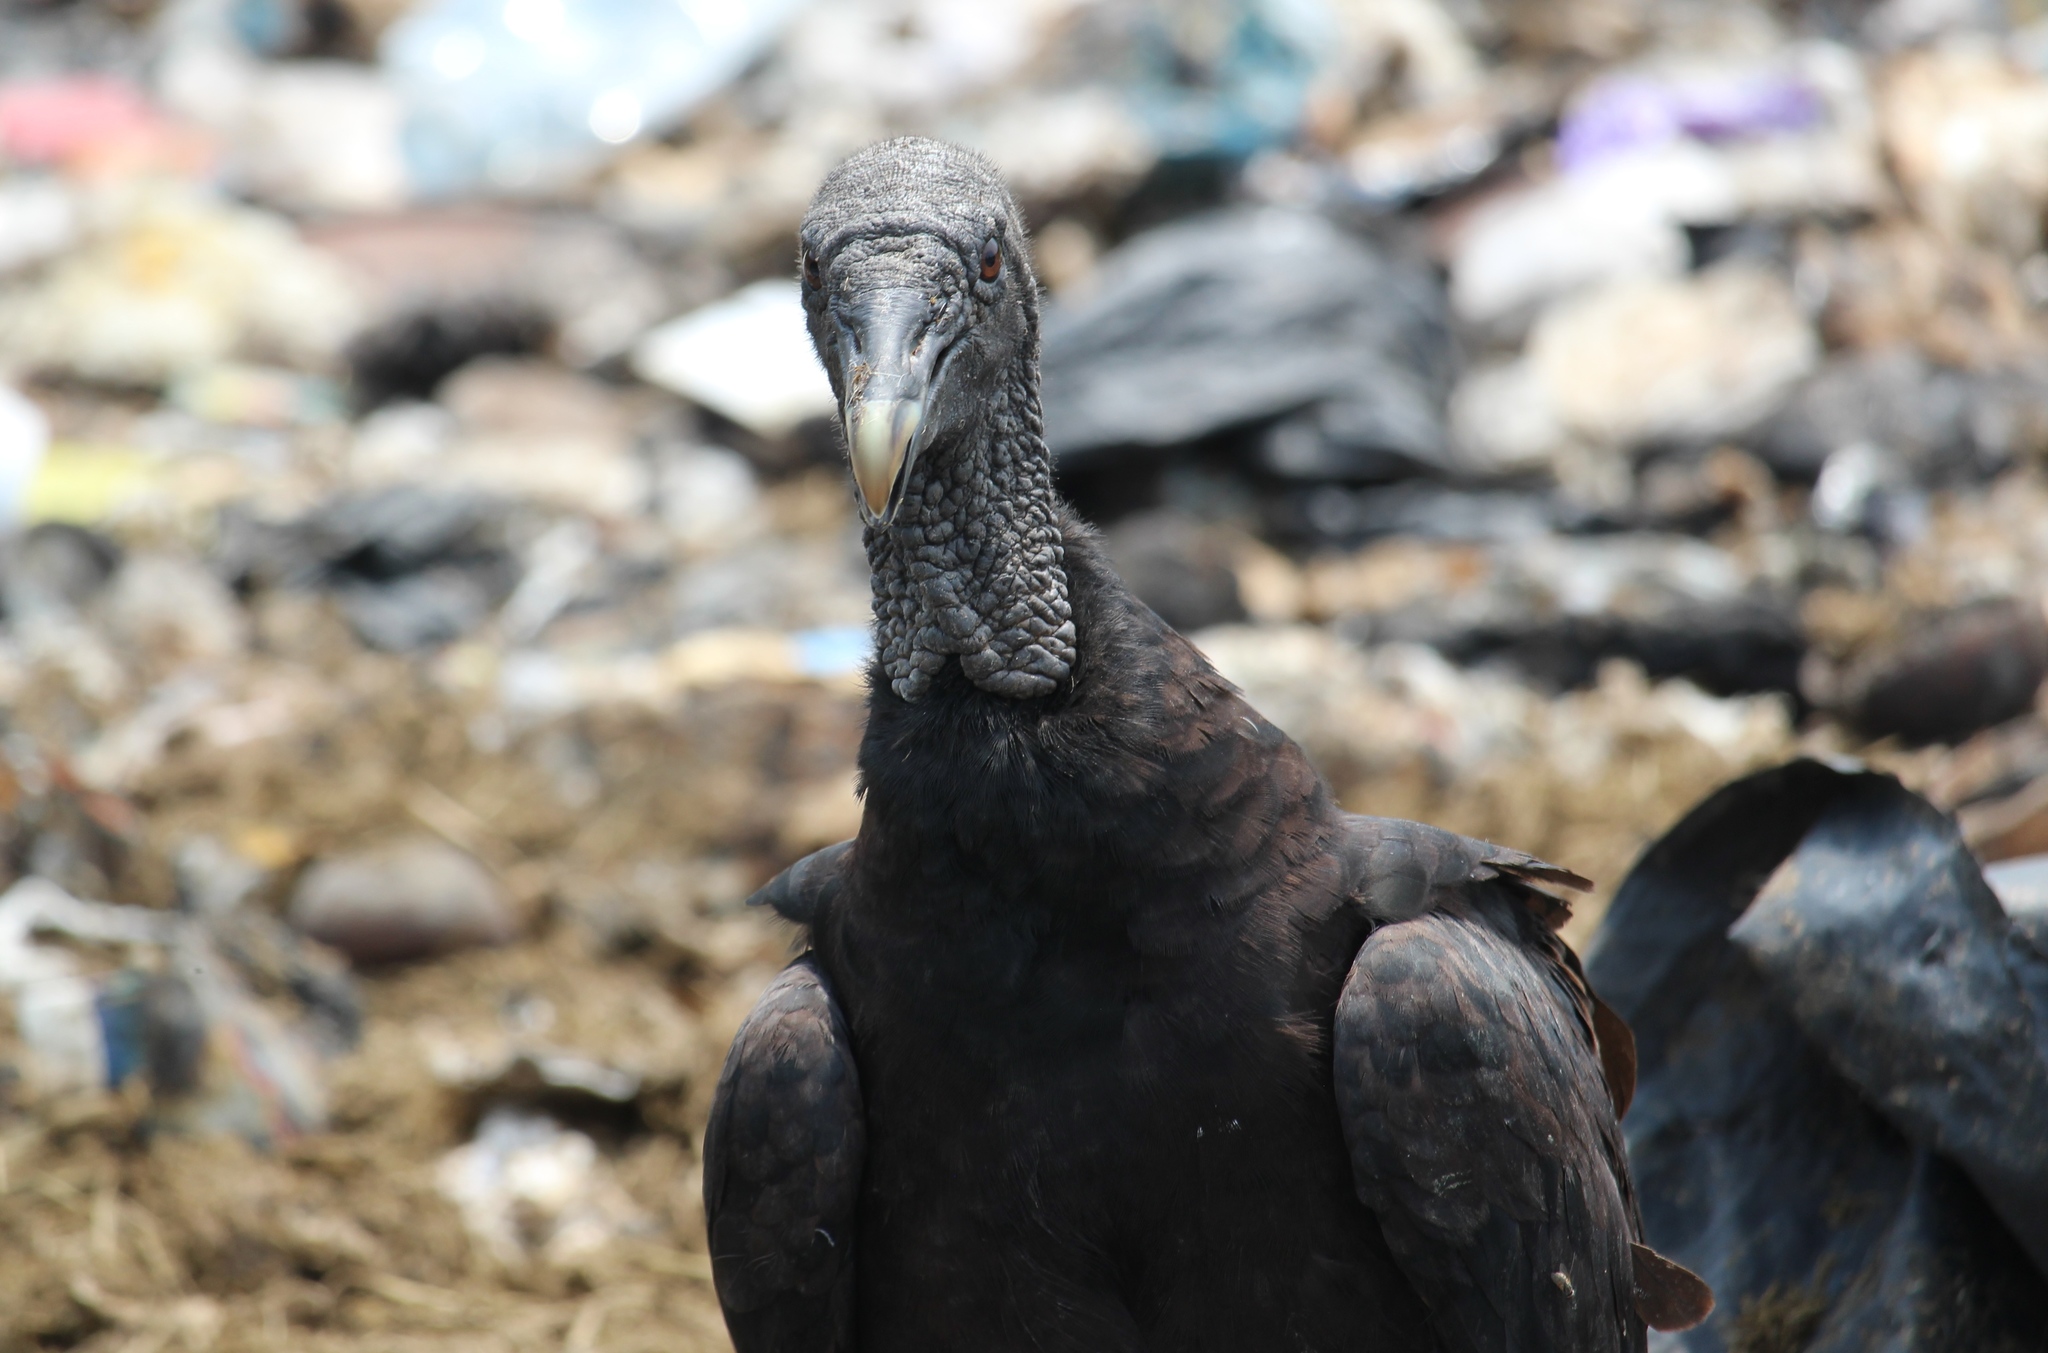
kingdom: Animalia
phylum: Chordata
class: Aves
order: Accipitriformes
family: Cathartidae
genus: Coragyps
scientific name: Coragyps atratus
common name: Black vulture
